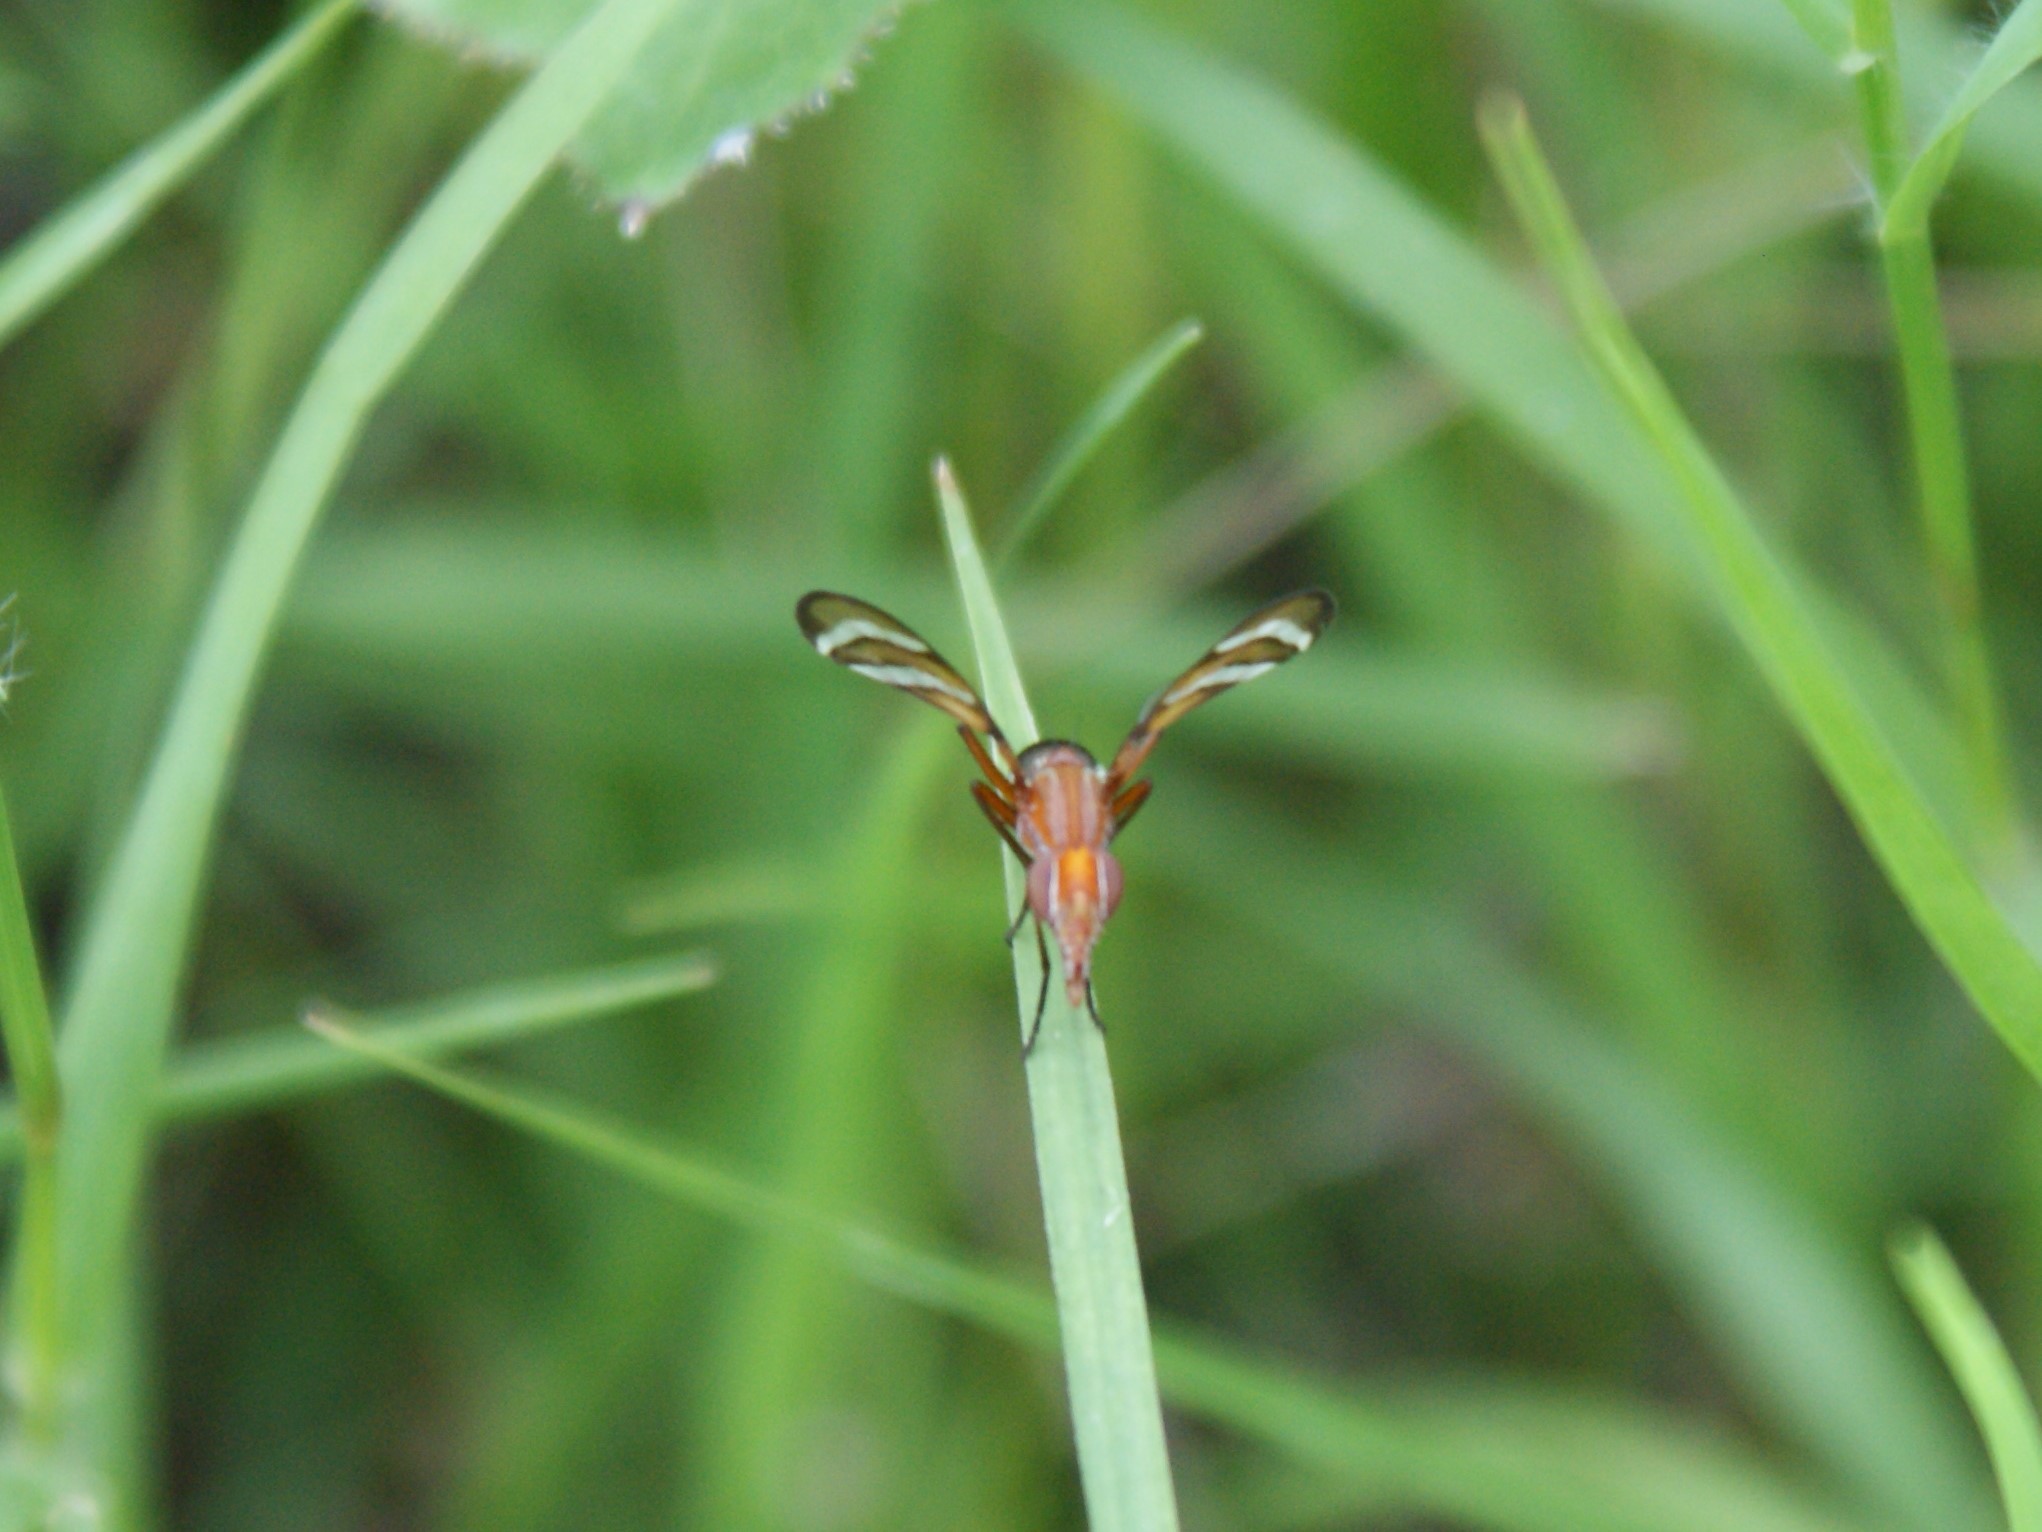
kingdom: Animalia
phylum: Arthropoda
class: Insecta
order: Diptera
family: Ulidiidae
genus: Tritoxa
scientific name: Tritoxa incurva
